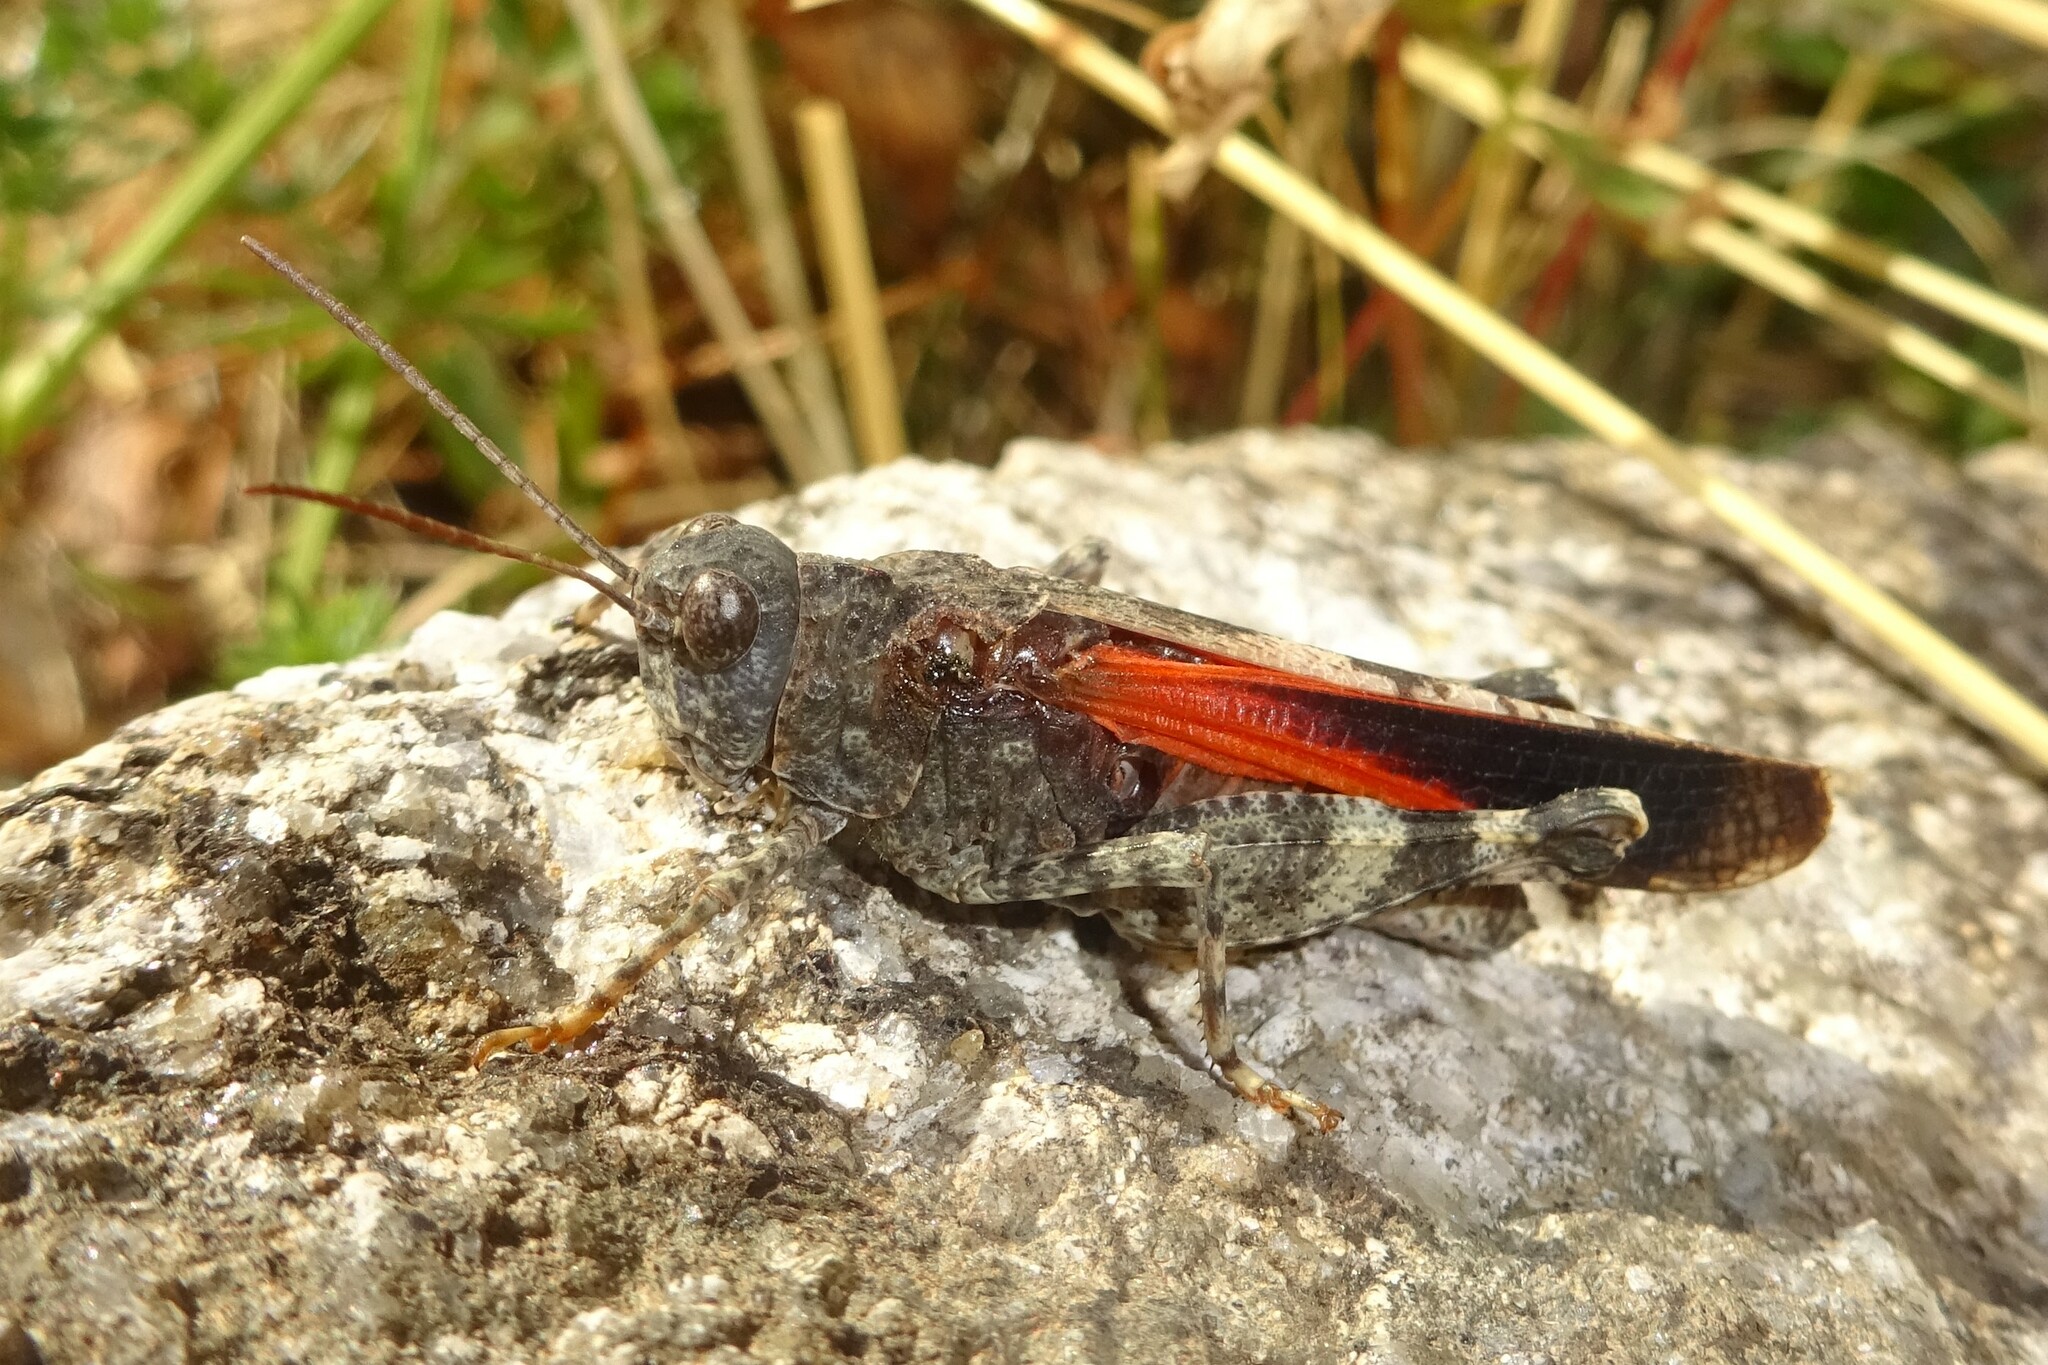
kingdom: Animalia
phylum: Arthropoda
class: Insecta
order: Orthoptera
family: Acrididae
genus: Oedipoda
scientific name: Oedipoda germanica
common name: Red band-winged grasshopper
